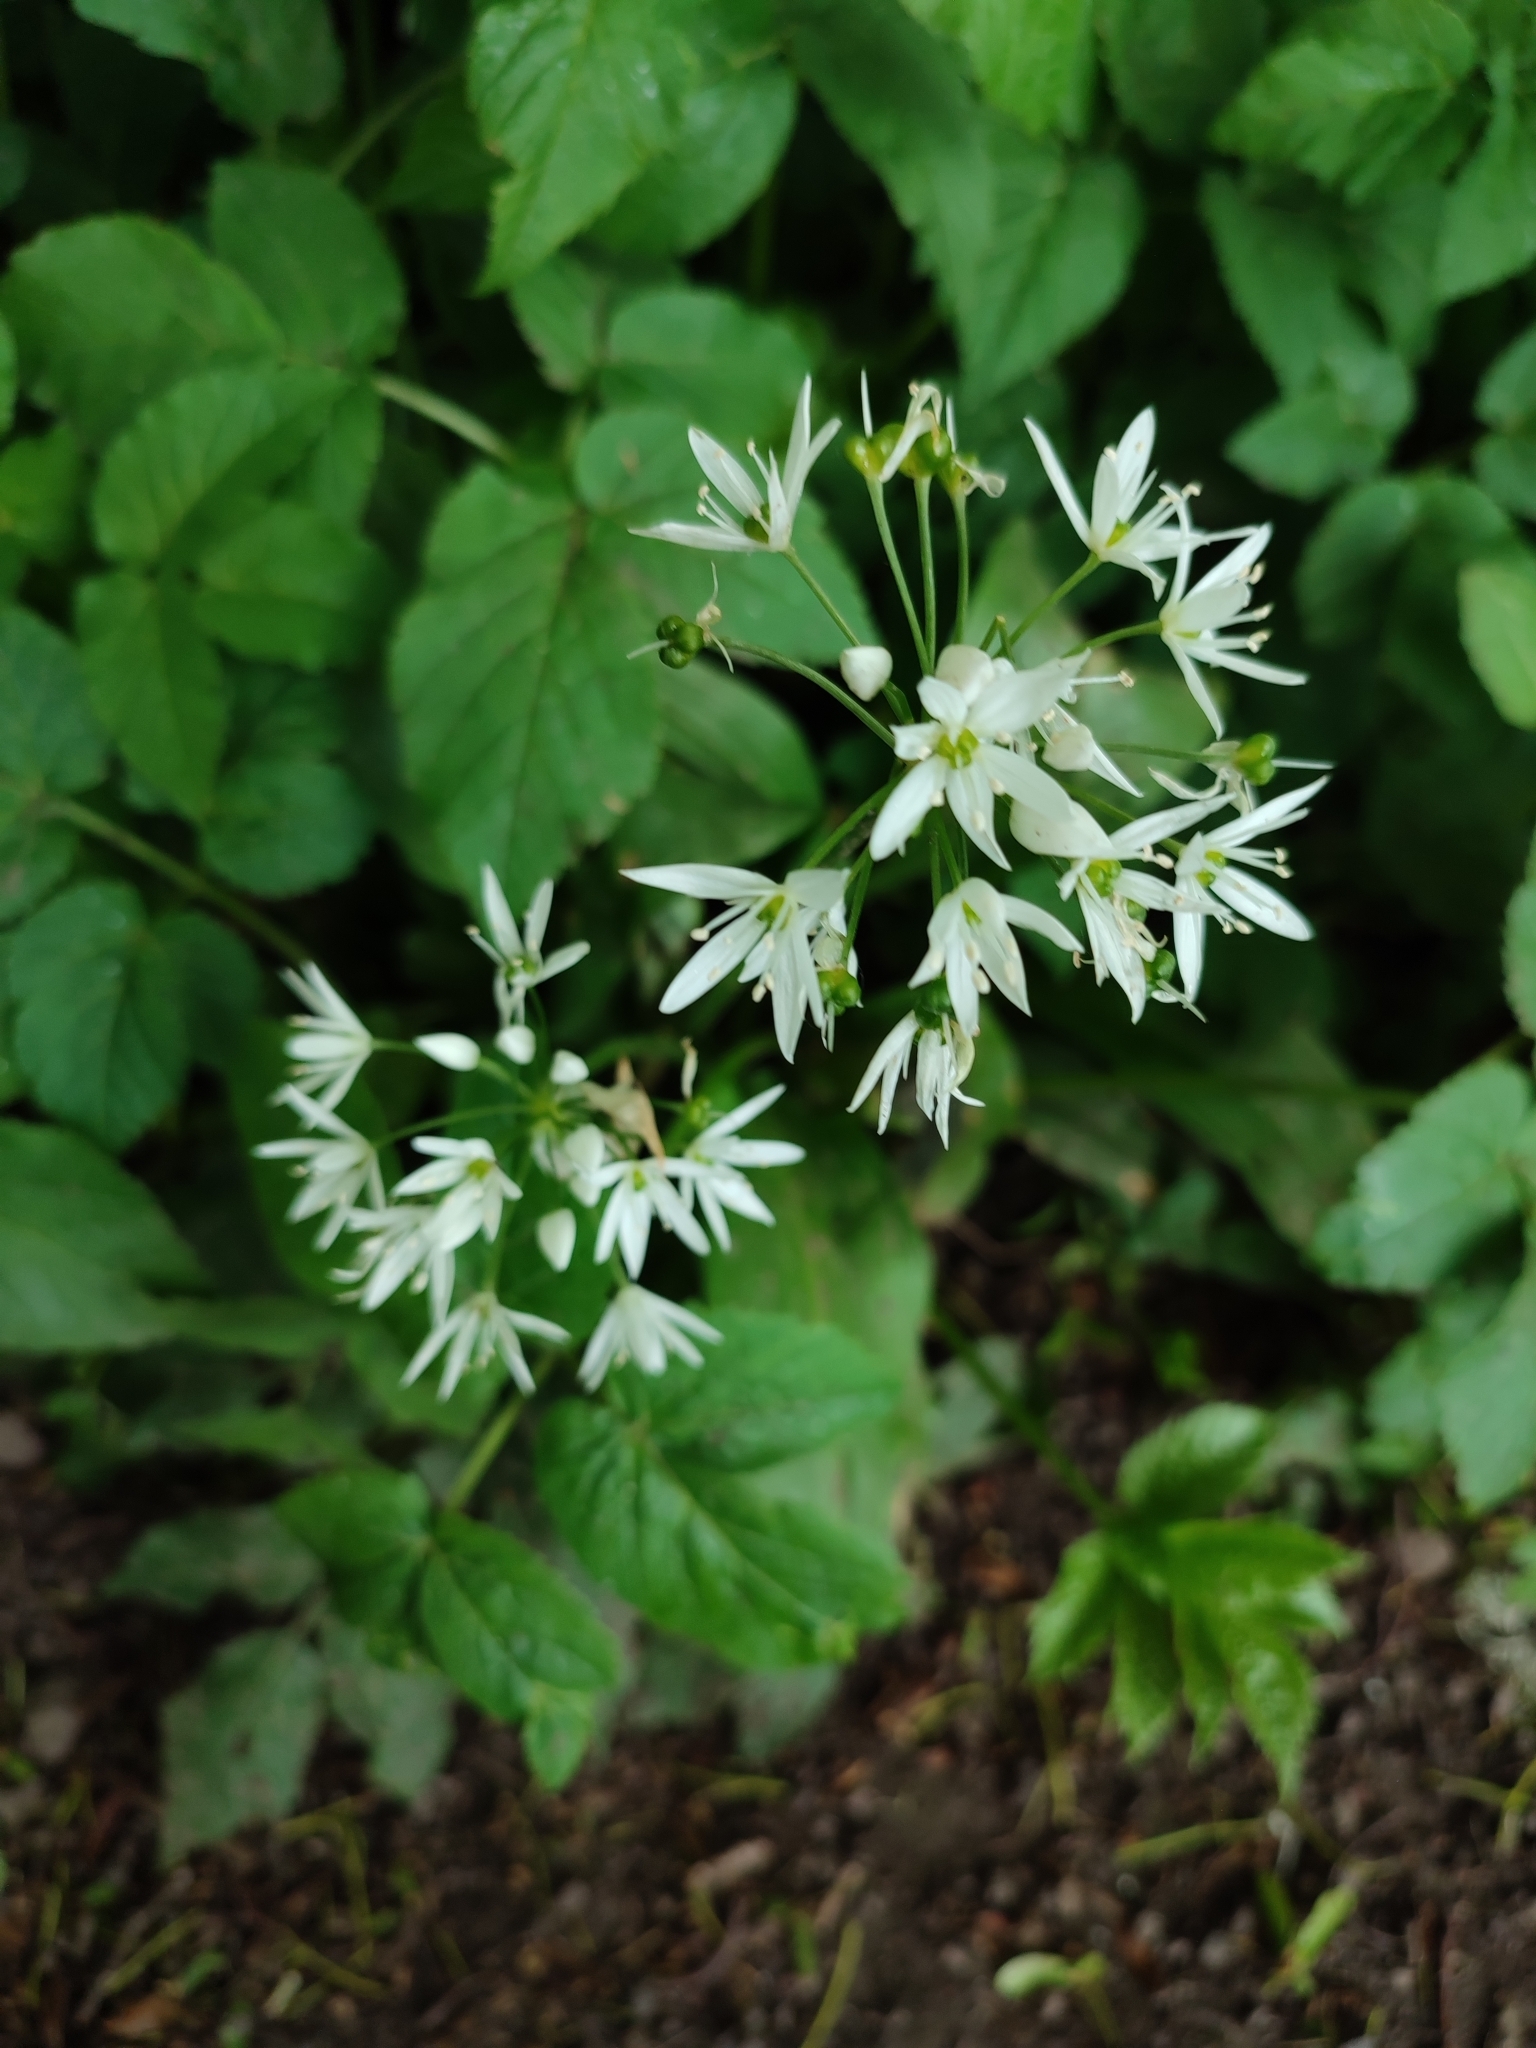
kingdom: Plantae
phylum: Tracheophyta
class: Liliopsida
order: Asparagales
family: Amaryllidaceae
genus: Allium
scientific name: Allium ursinum
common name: Ramsons
